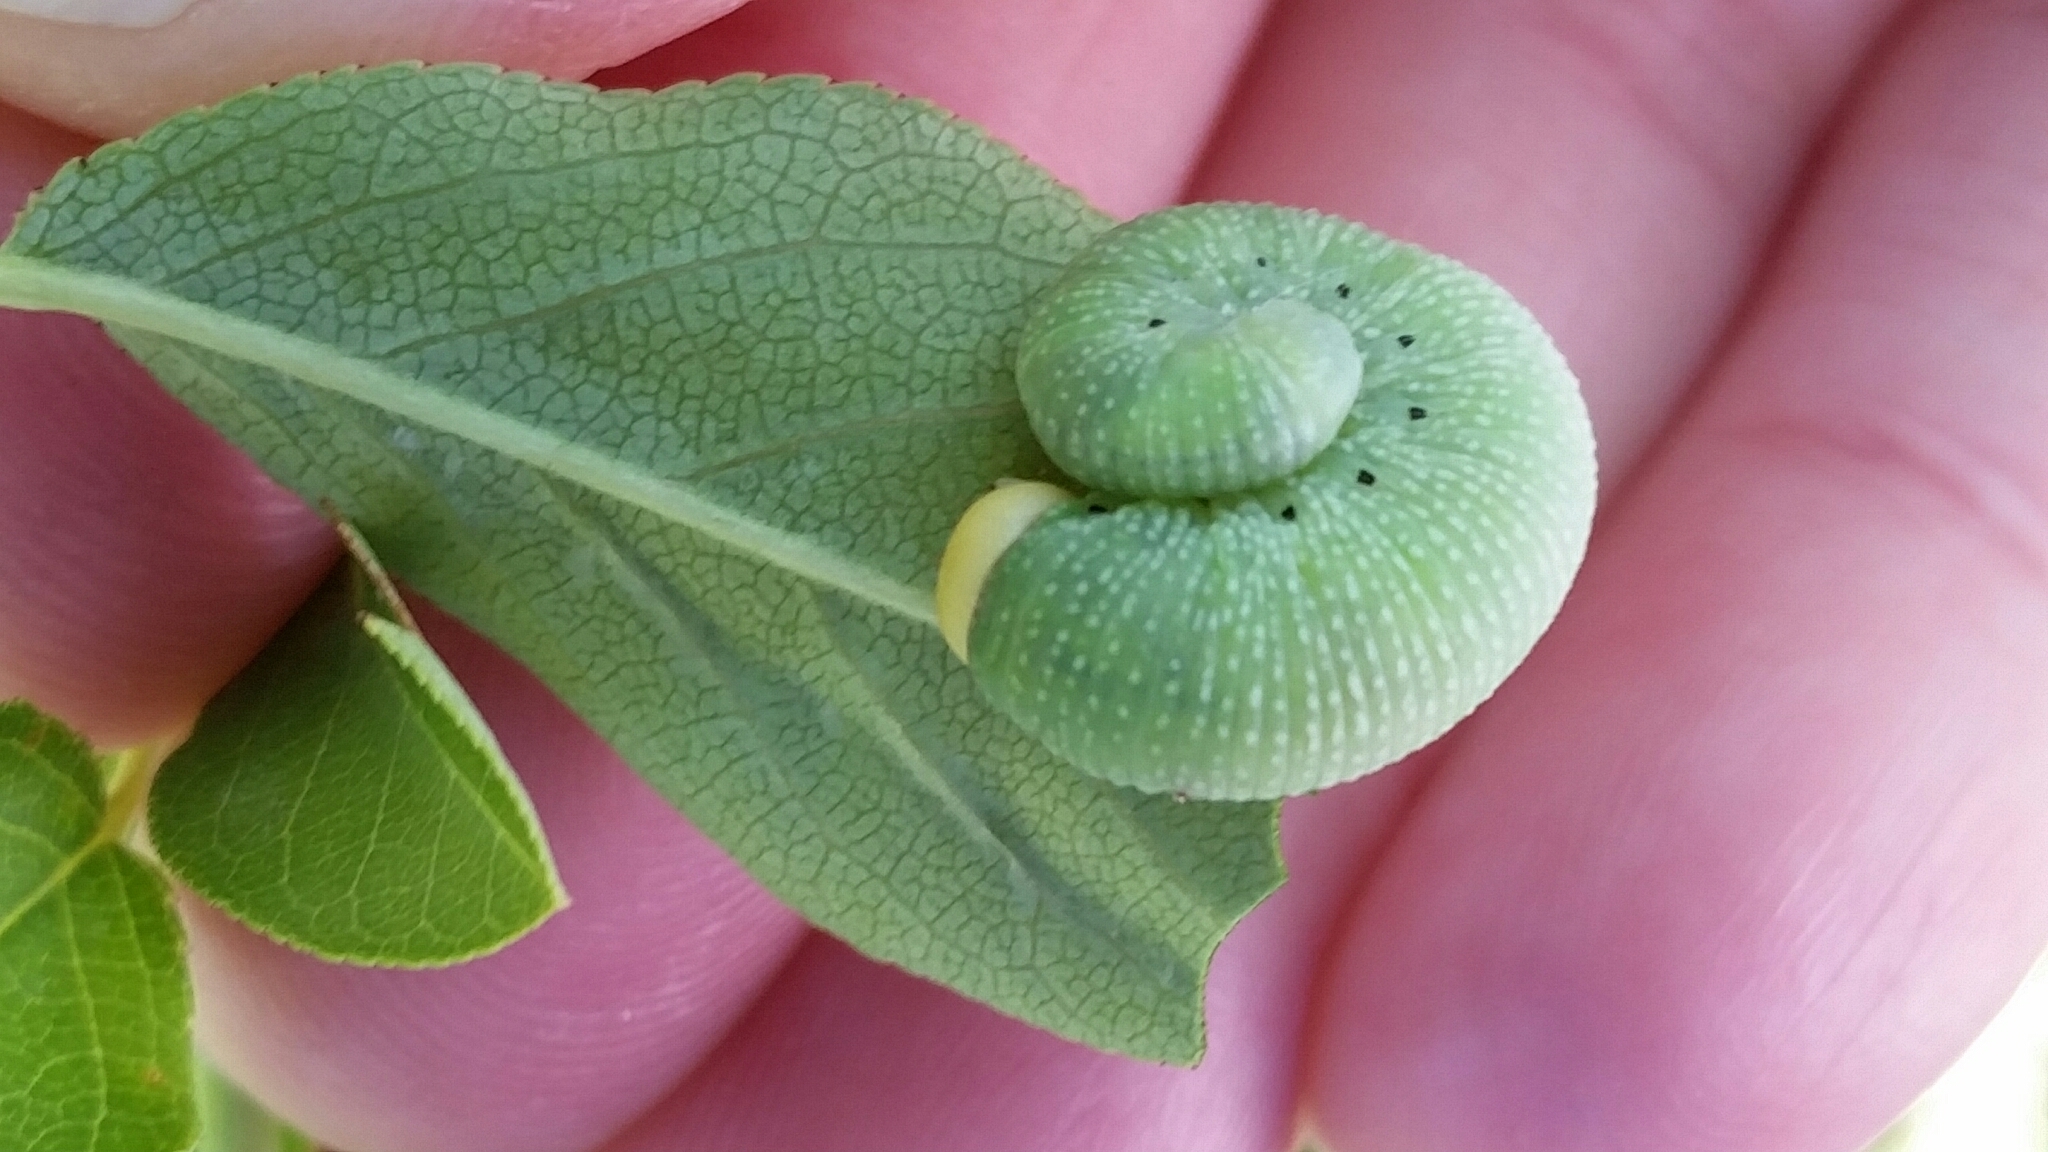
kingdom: Animalia
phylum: Arthropoda
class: Insecta
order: Hymenoptera
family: Cimbicidae
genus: Trichiosoma
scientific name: Trichiosoma triangulum
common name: Giant birch sawfly
